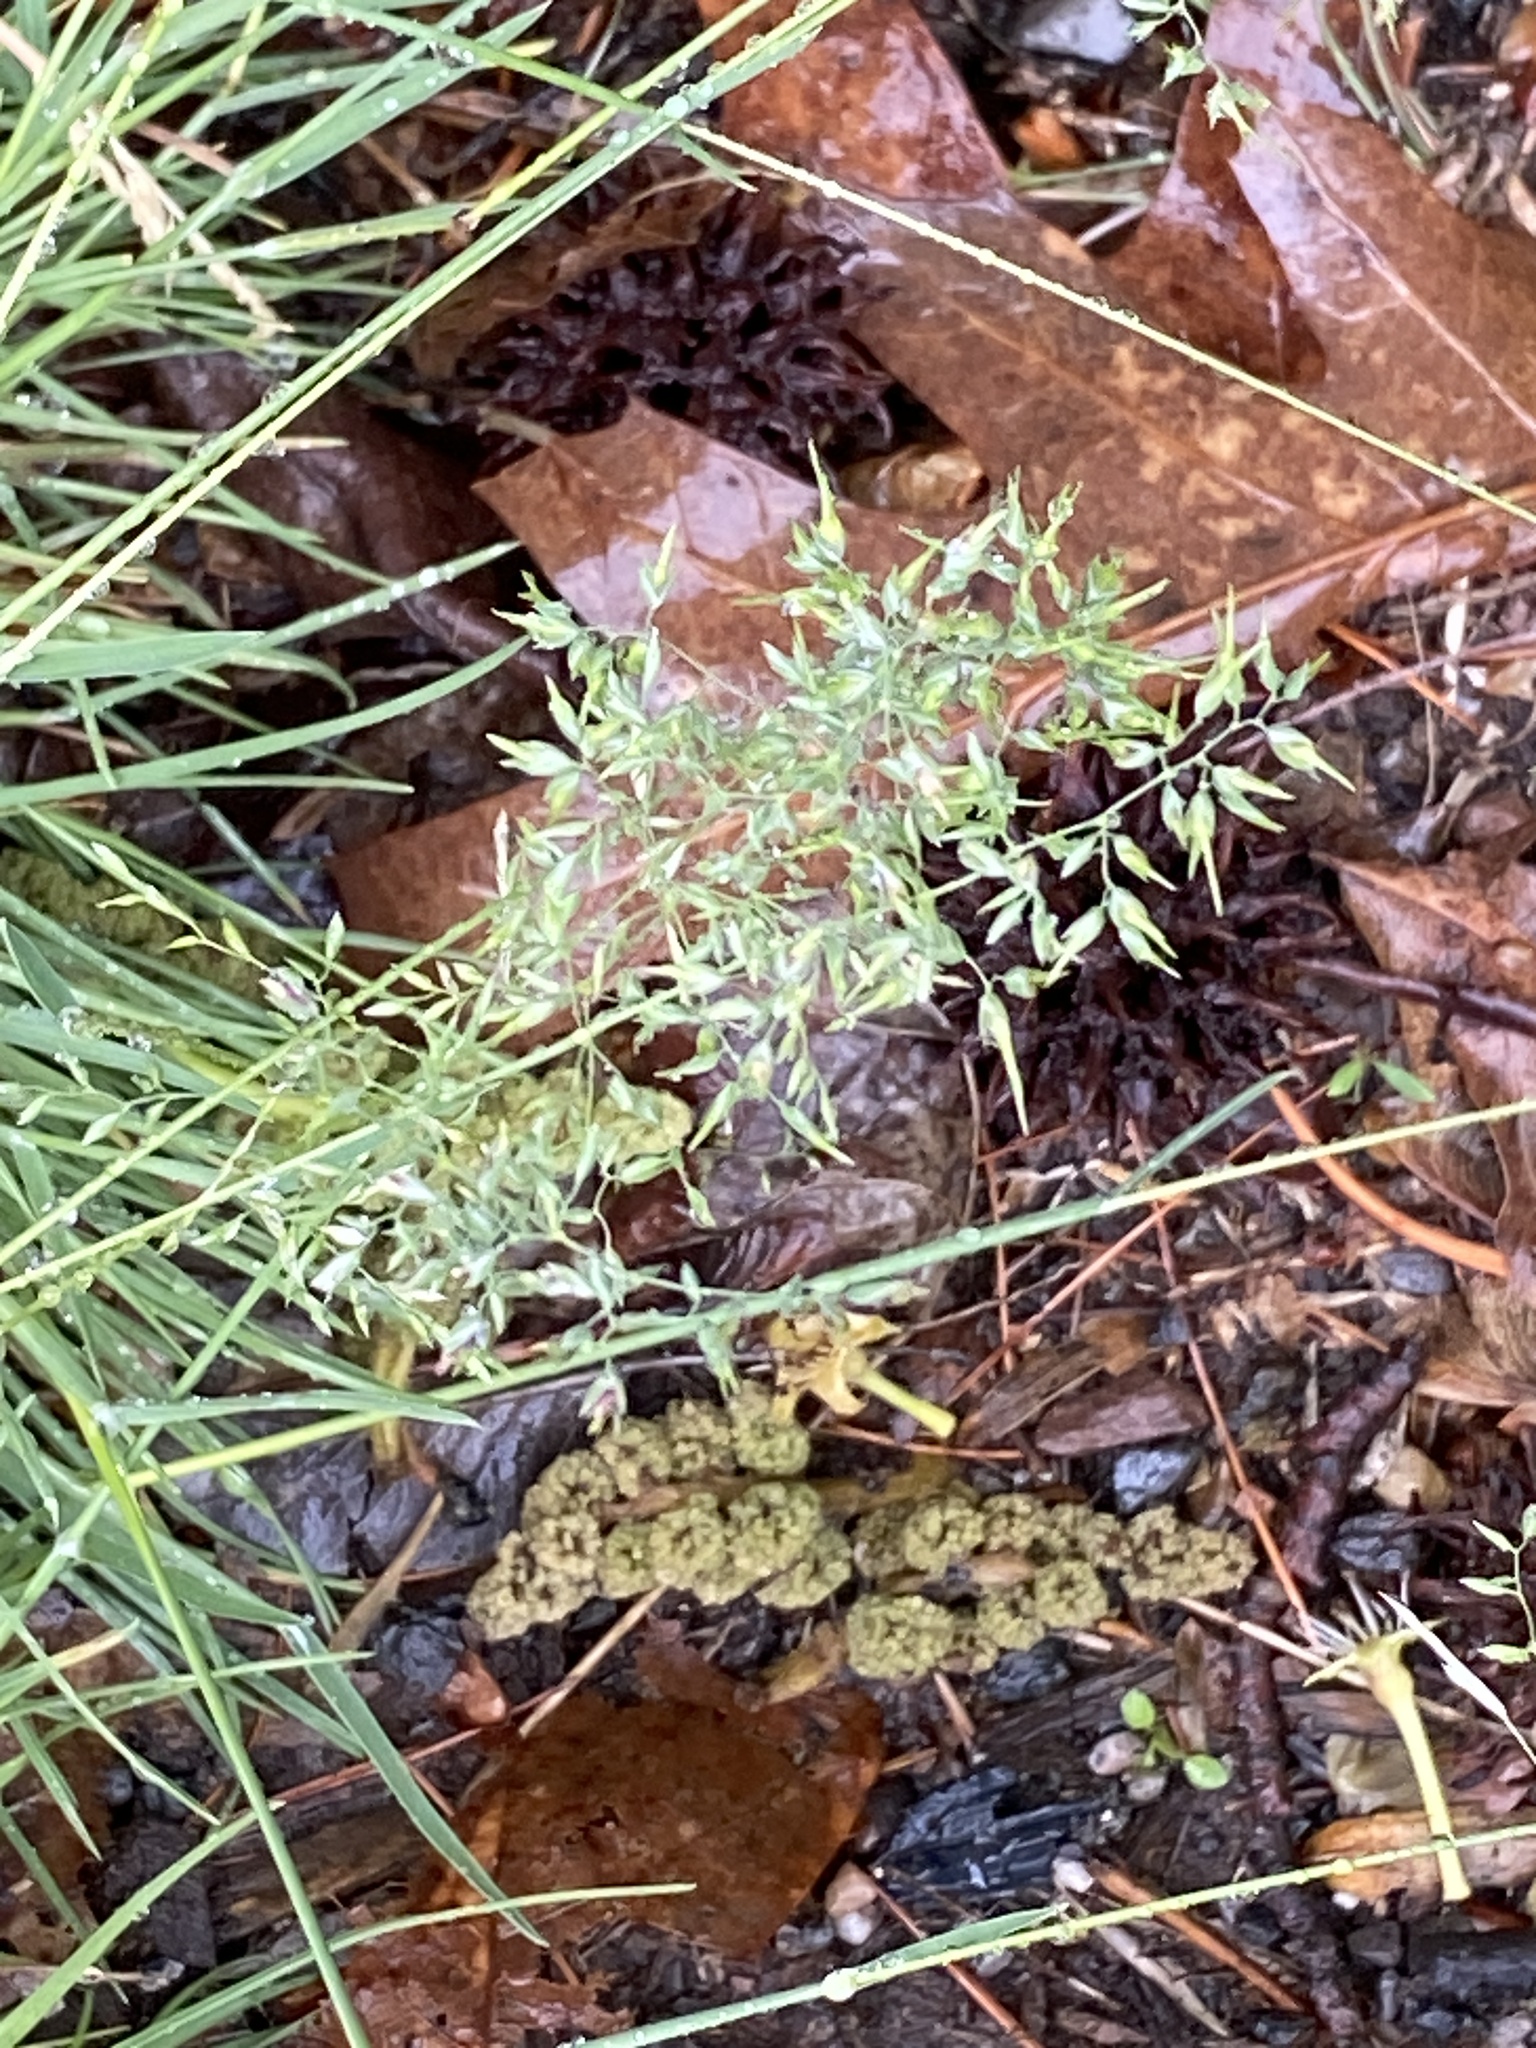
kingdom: Plantae
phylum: Tracheophyta
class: Liliopsida
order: Poales
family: Poaceae
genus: Poa
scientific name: Poa bulbosa
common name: Bulbous bluegrass
